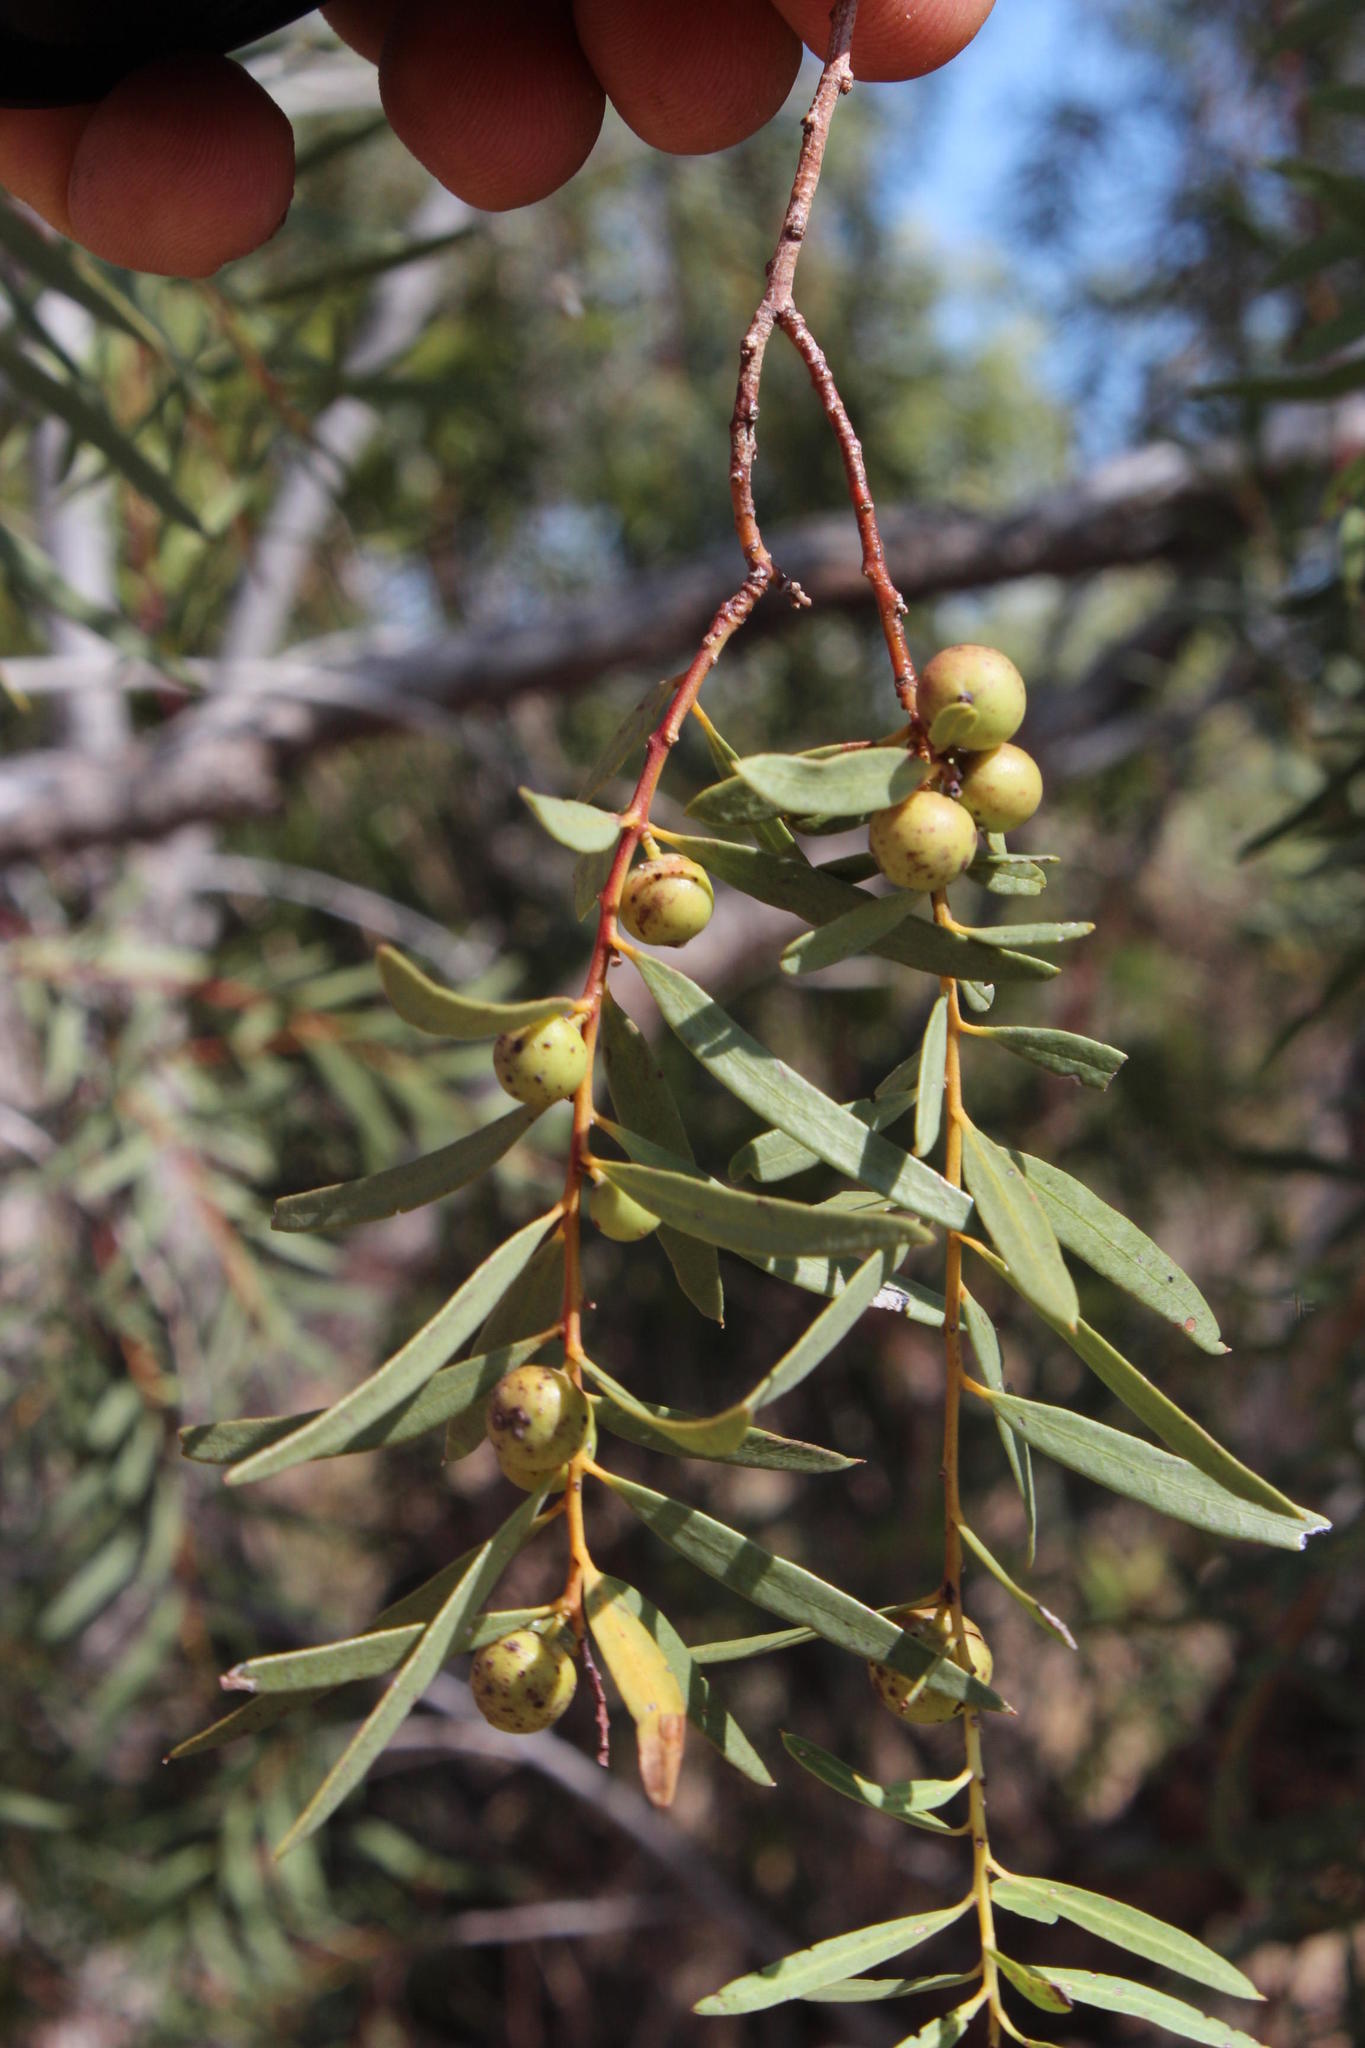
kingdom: Plantae
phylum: Tracheophyta
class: Magnoliopsida
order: Ericales
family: Ebenaceae
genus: Euclea
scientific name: Euclea pseudebenus
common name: Black ebony
